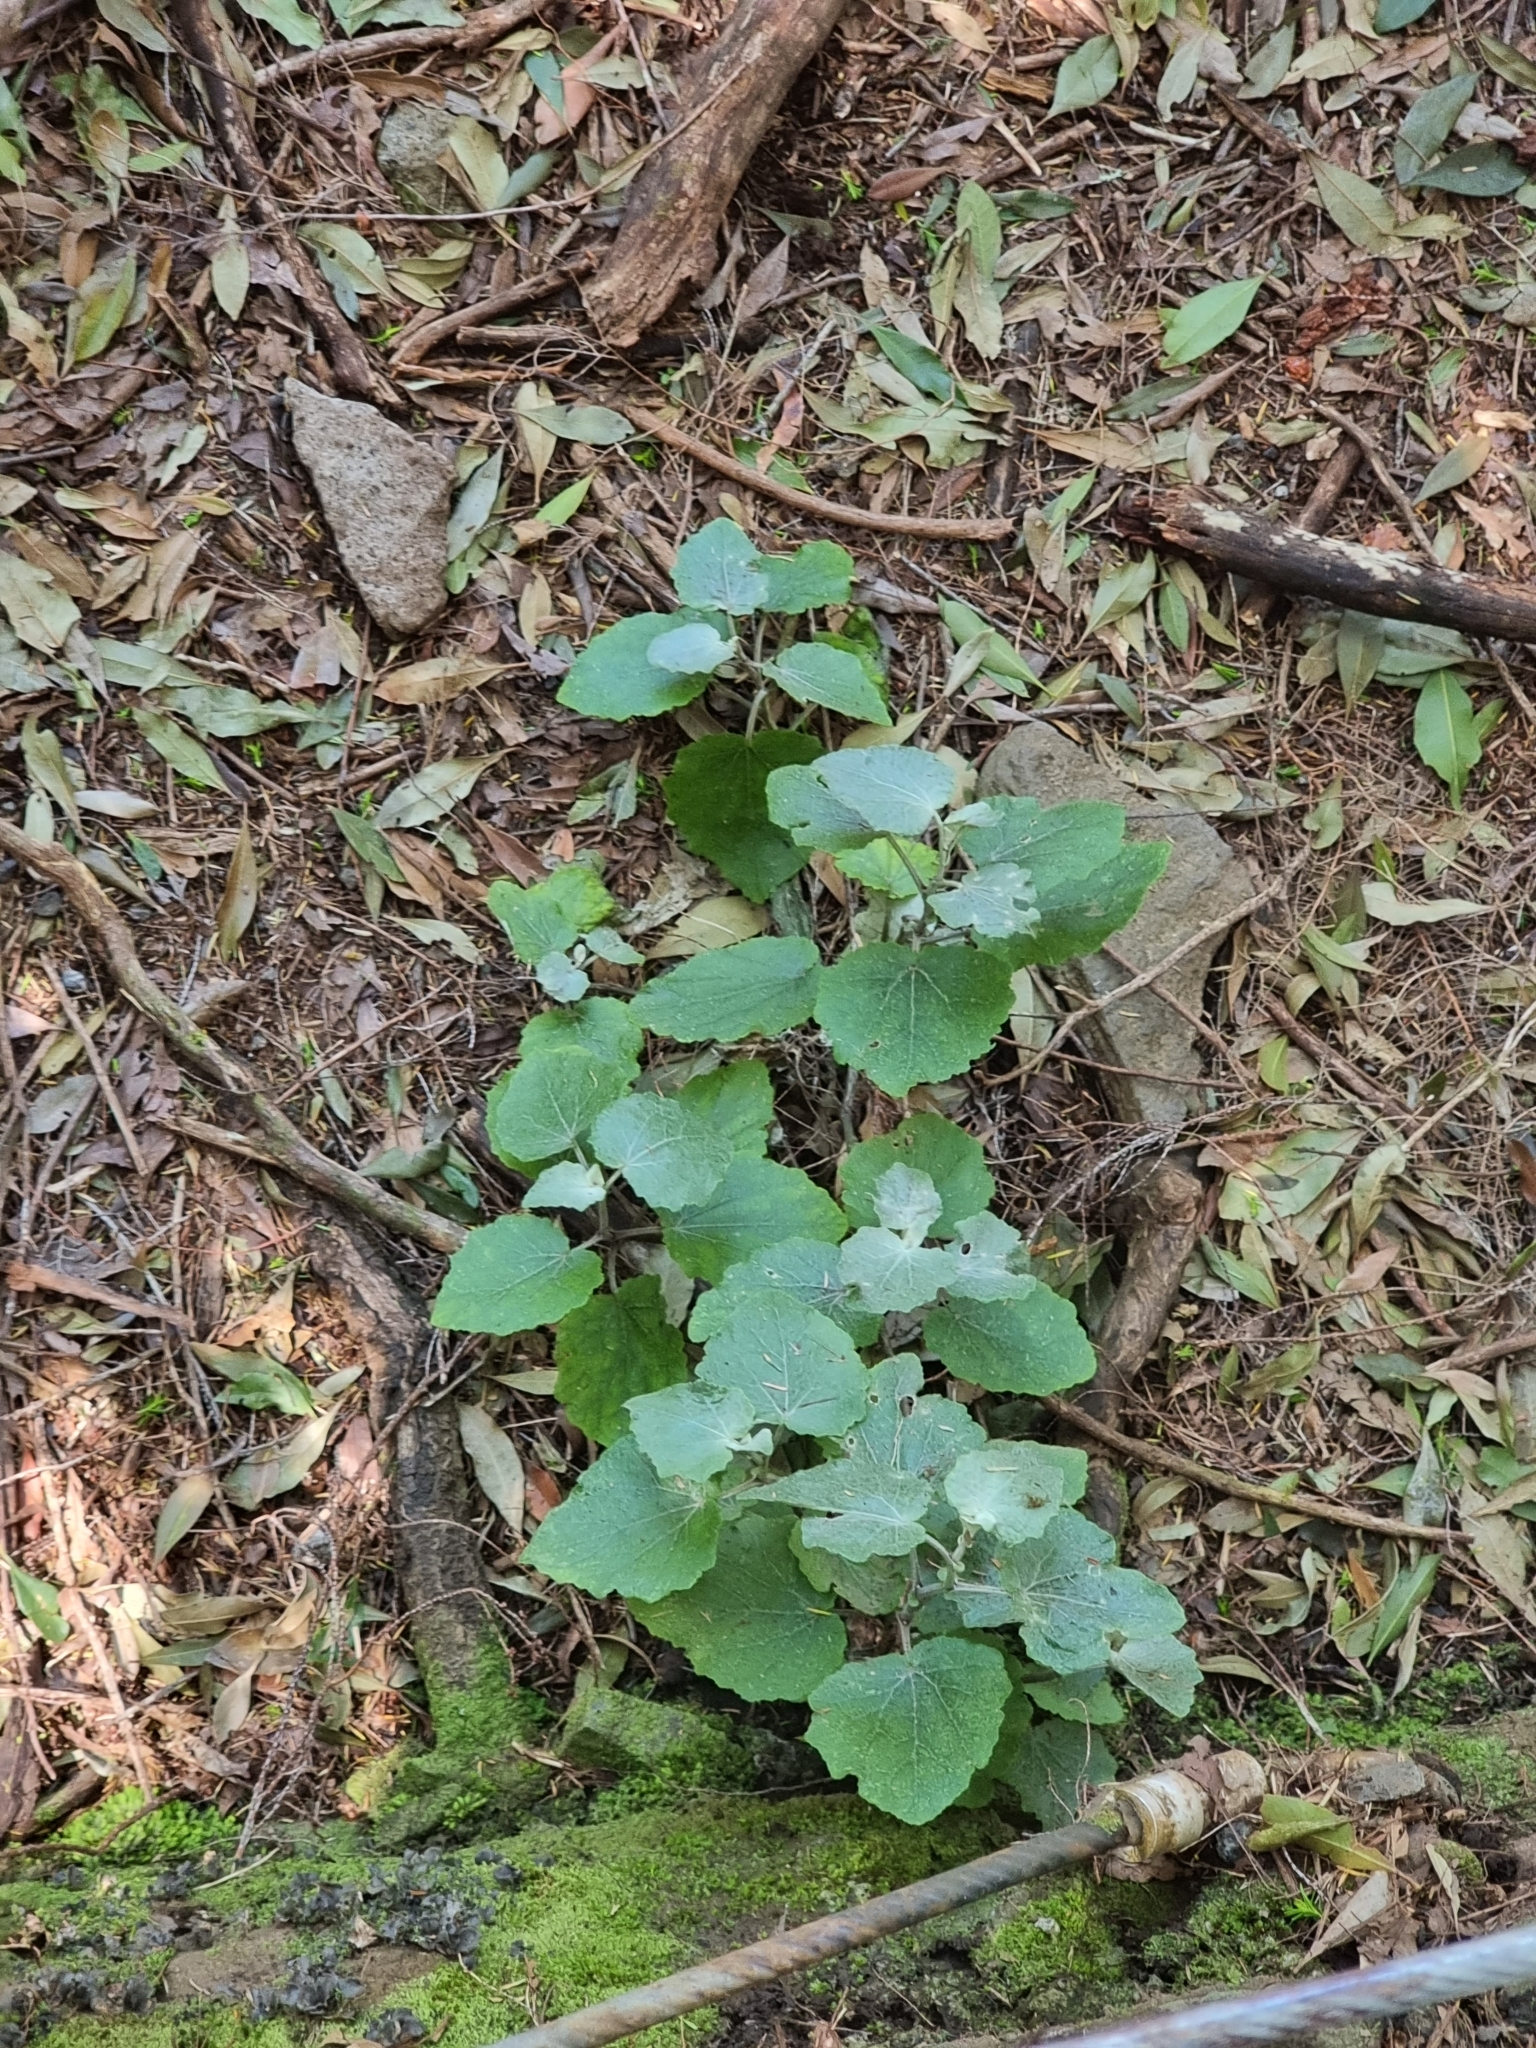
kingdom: Plantae
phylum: Tracheophyta
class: Magnoliopsida
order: Asterales
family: Asteraceae
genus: Pericallis
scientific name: Pericallis aurita
